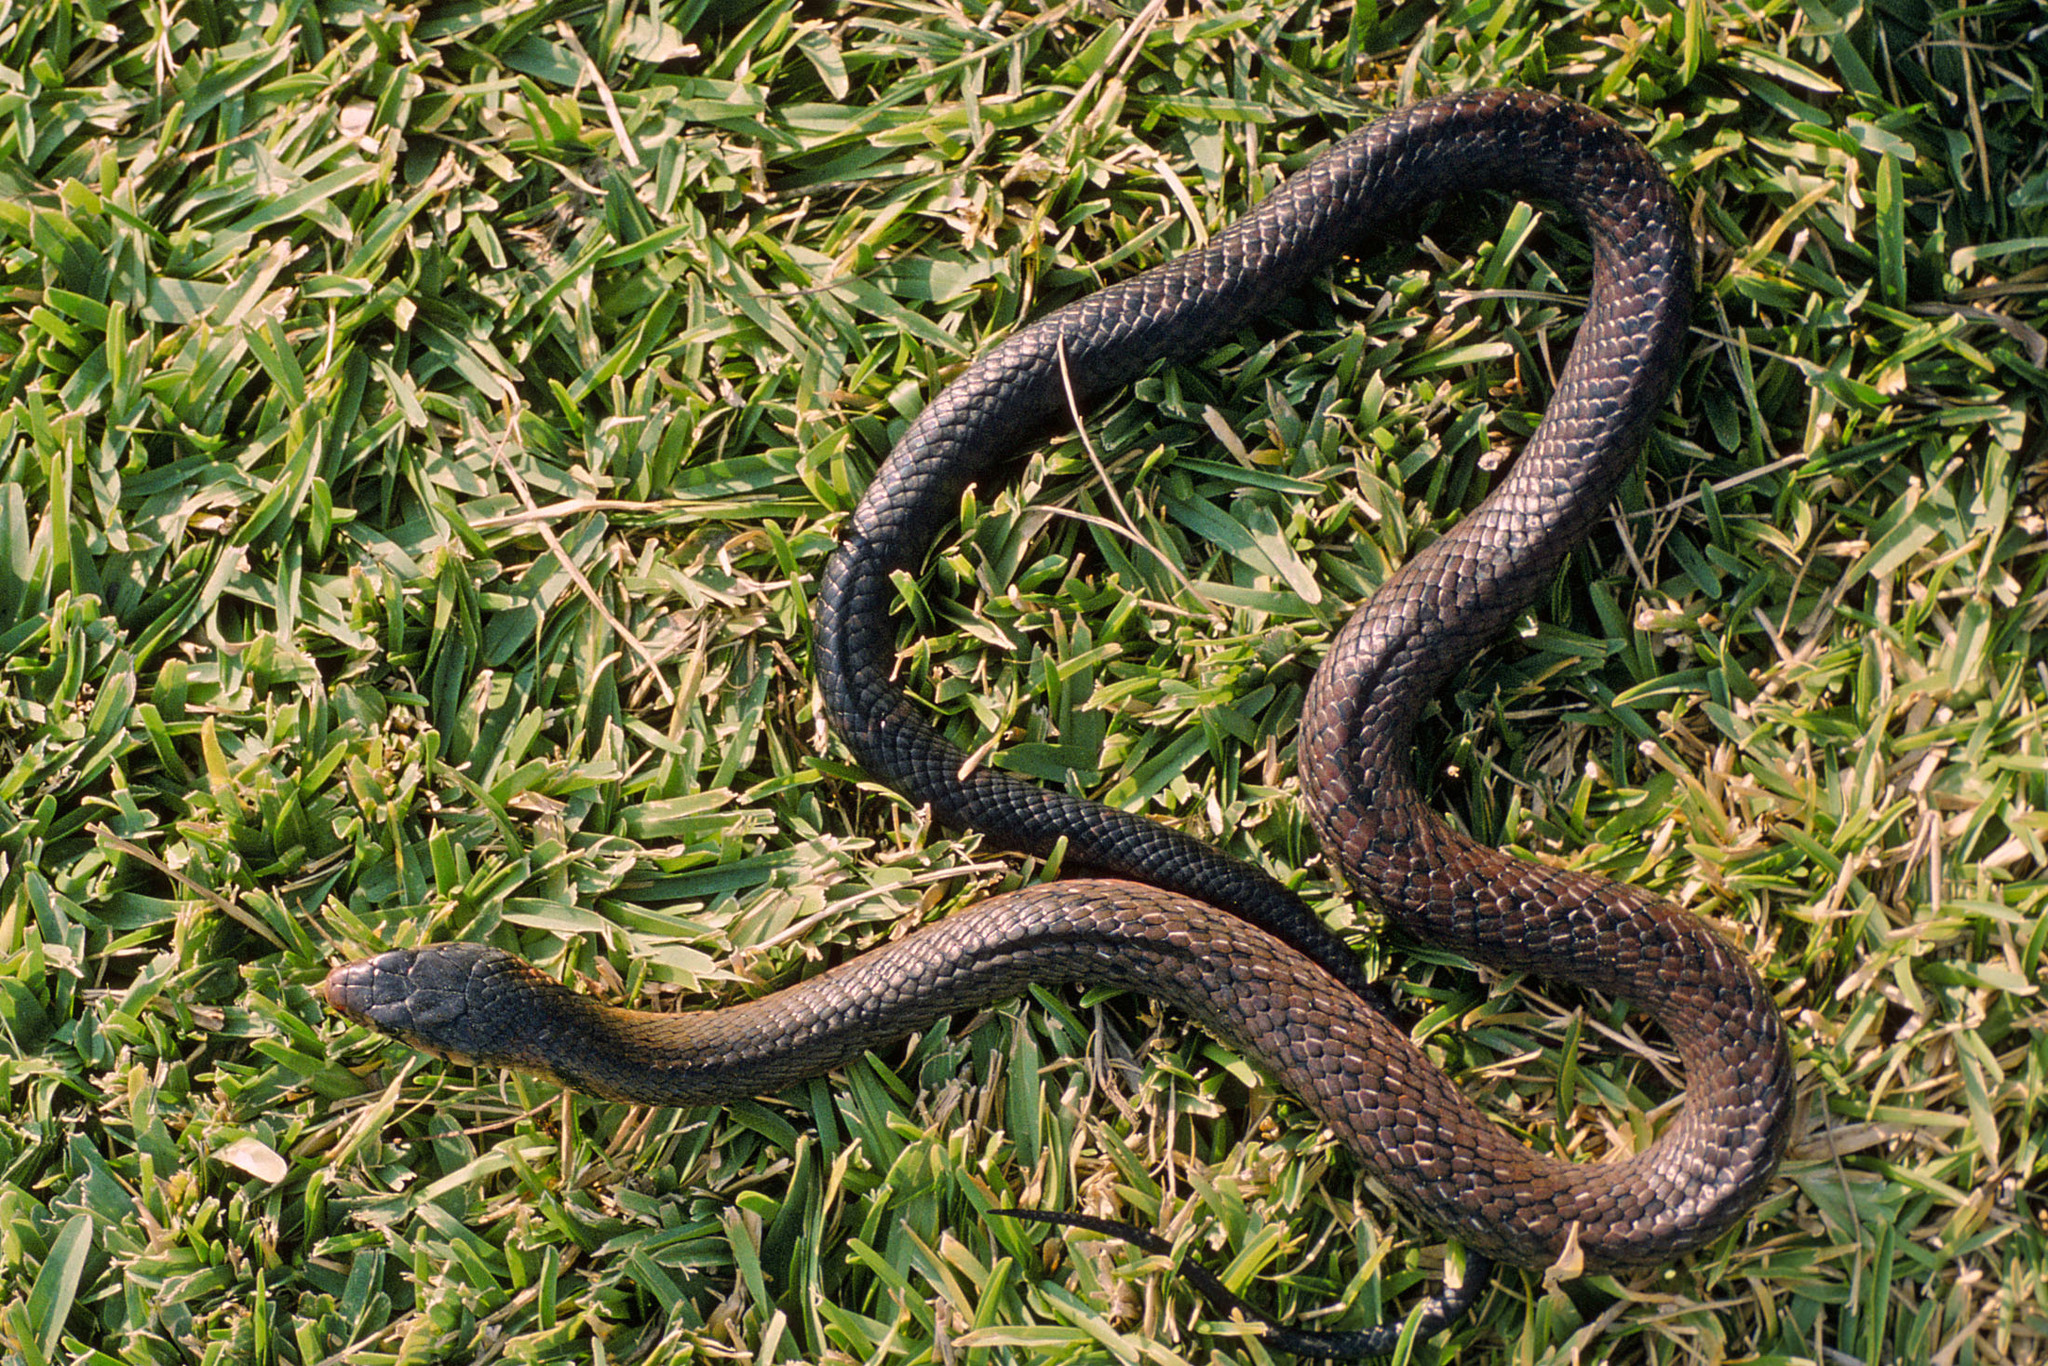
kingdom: Animalia
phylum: Chordata
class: Squamata
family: Colubridae
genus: Drymarchon
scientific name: Drymarchon melanurus
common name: Central american indigo snake
